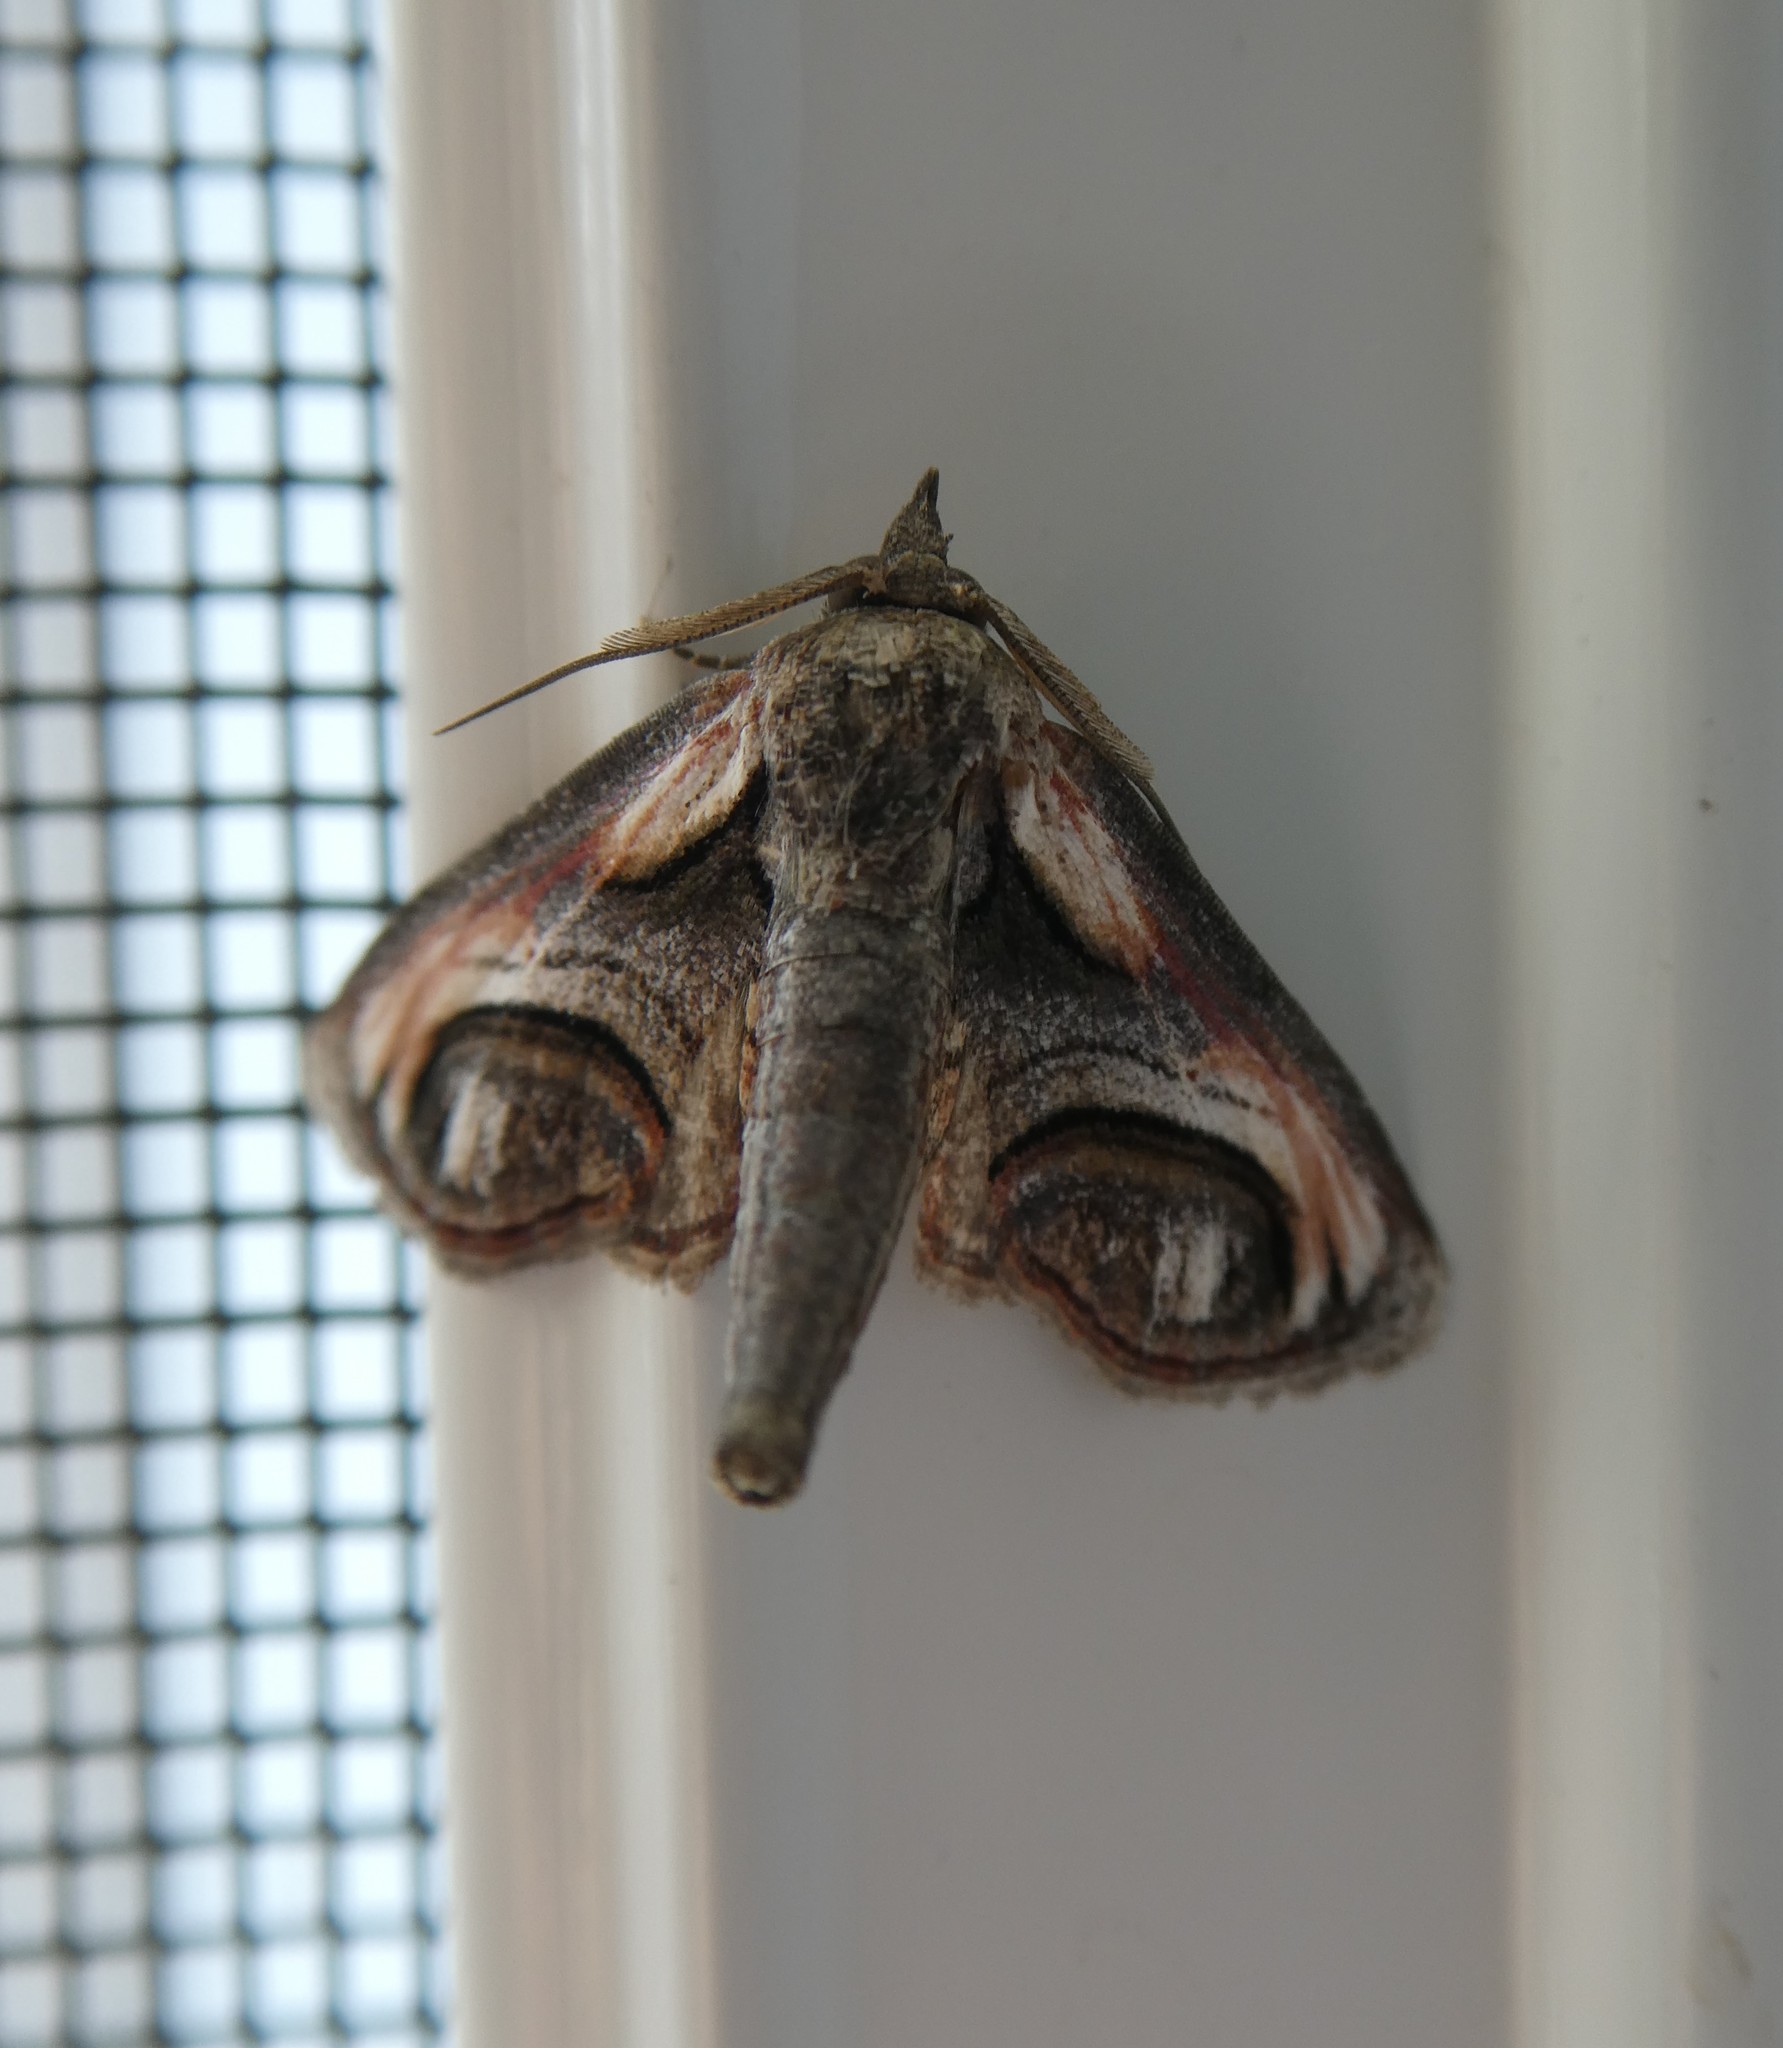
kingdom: Animalia
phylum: Arthropoda
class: Insecta
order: Lepidoptera
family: Euteliidae
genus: Paectes
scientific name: Paectes oculatrix
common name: Eyed paectes moth
